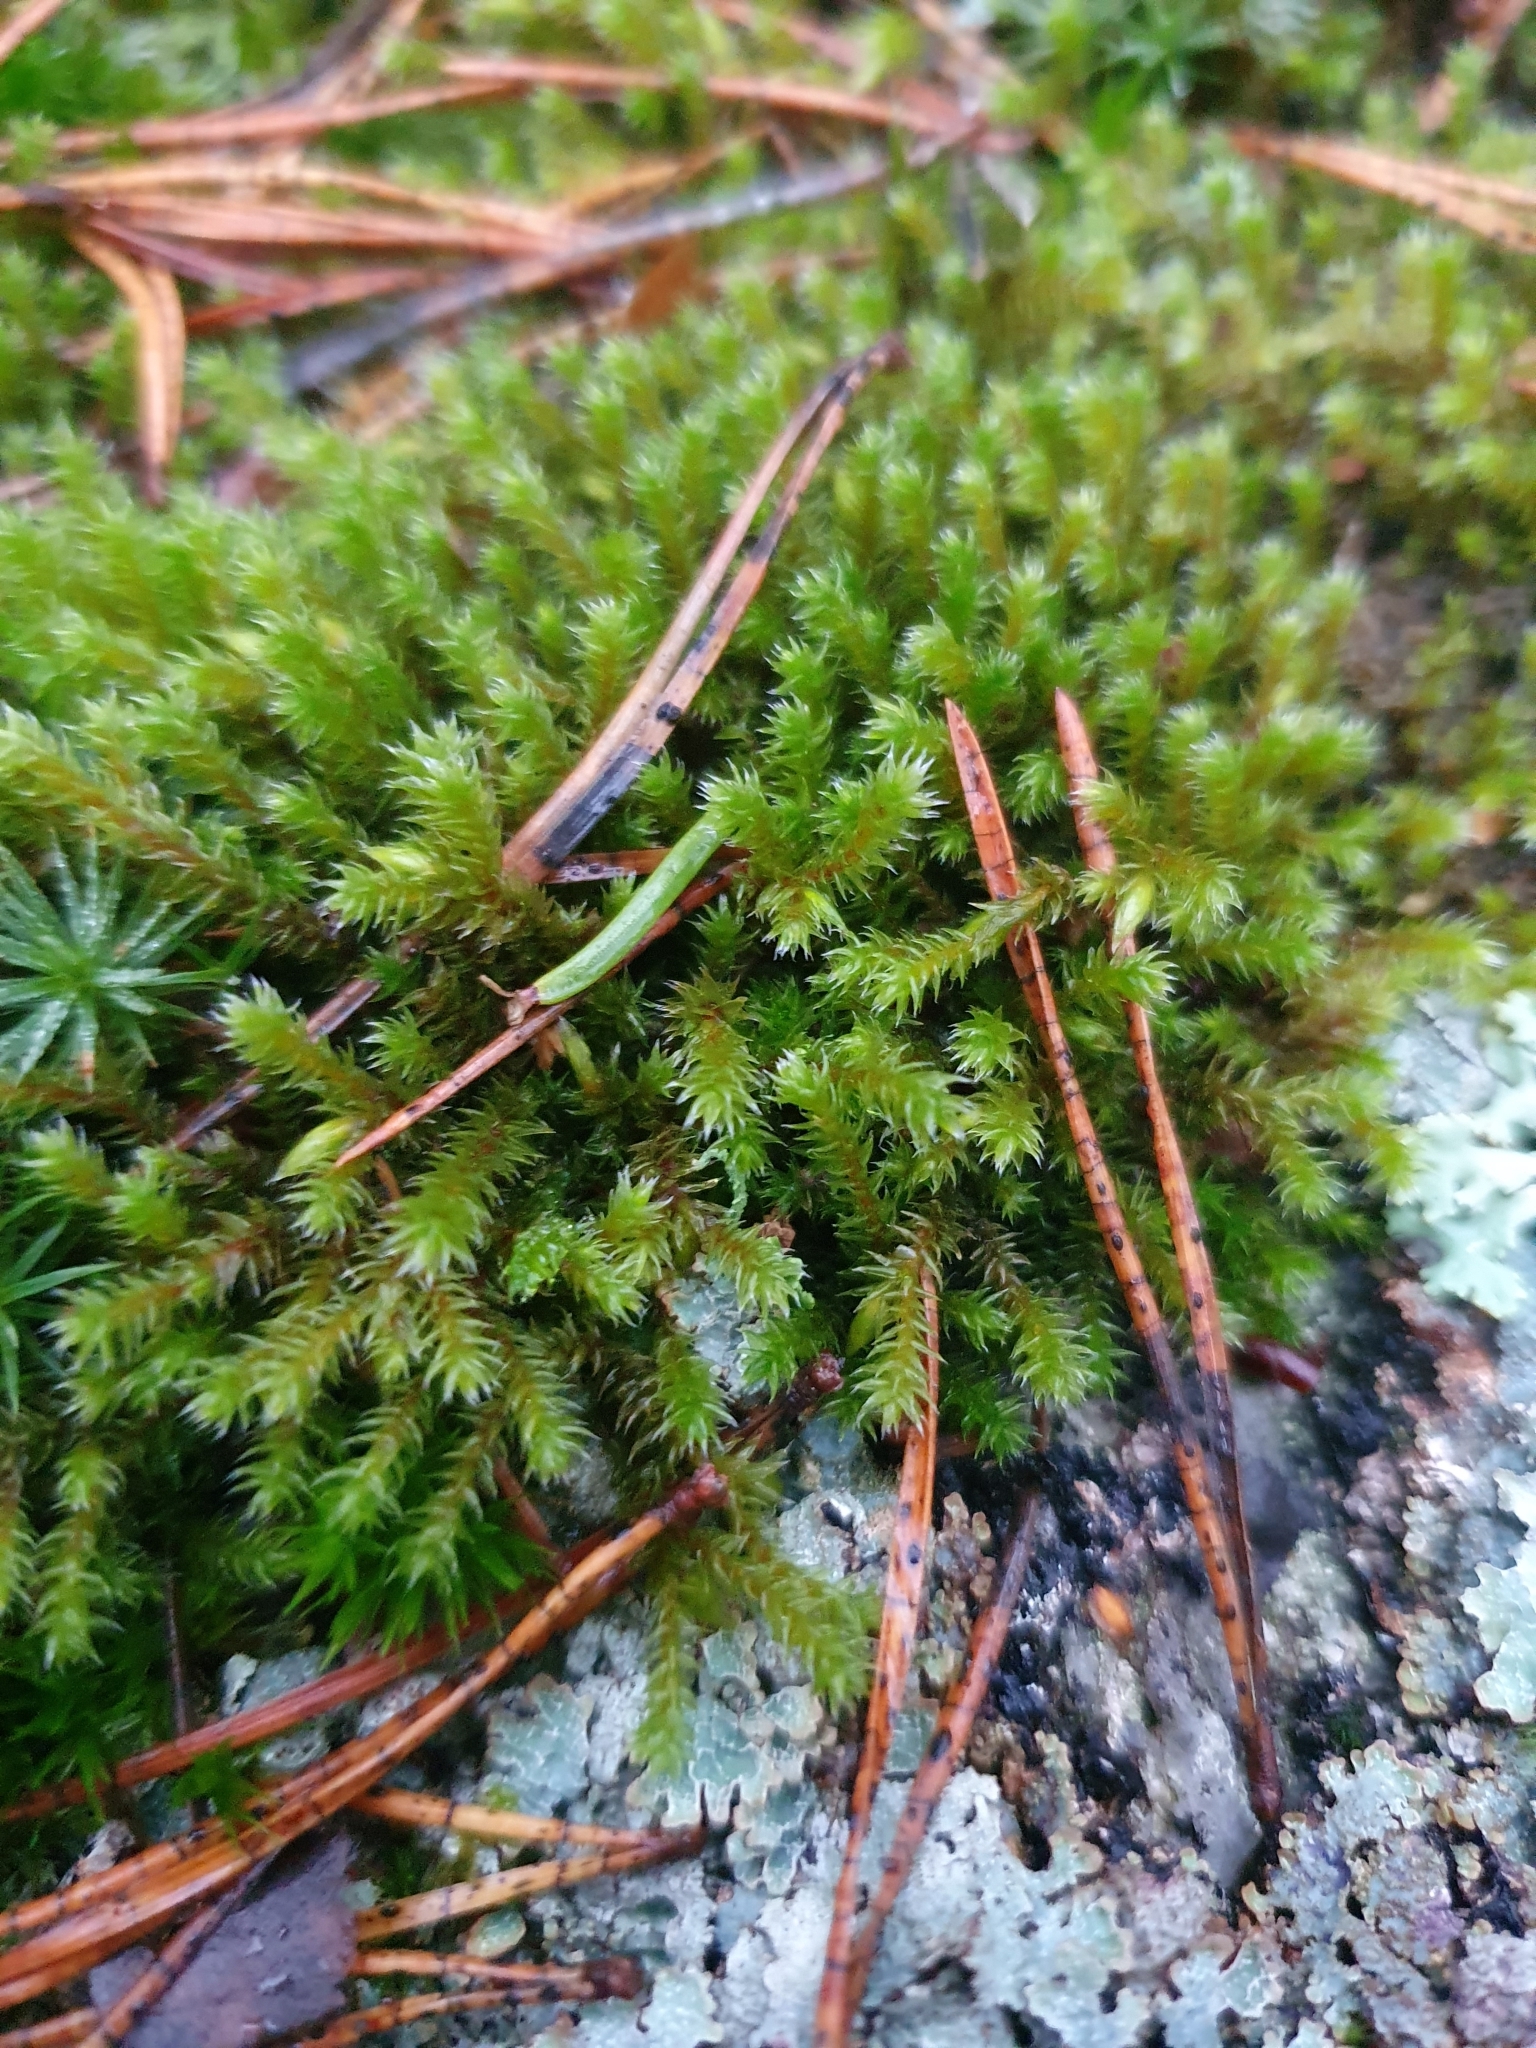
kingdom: Plantae
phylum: Bryophyta
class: Bryopsida
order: Hedwigiales
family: Hedwigiaceae
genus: Hedwigia
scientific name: Hedwigia ciliata
